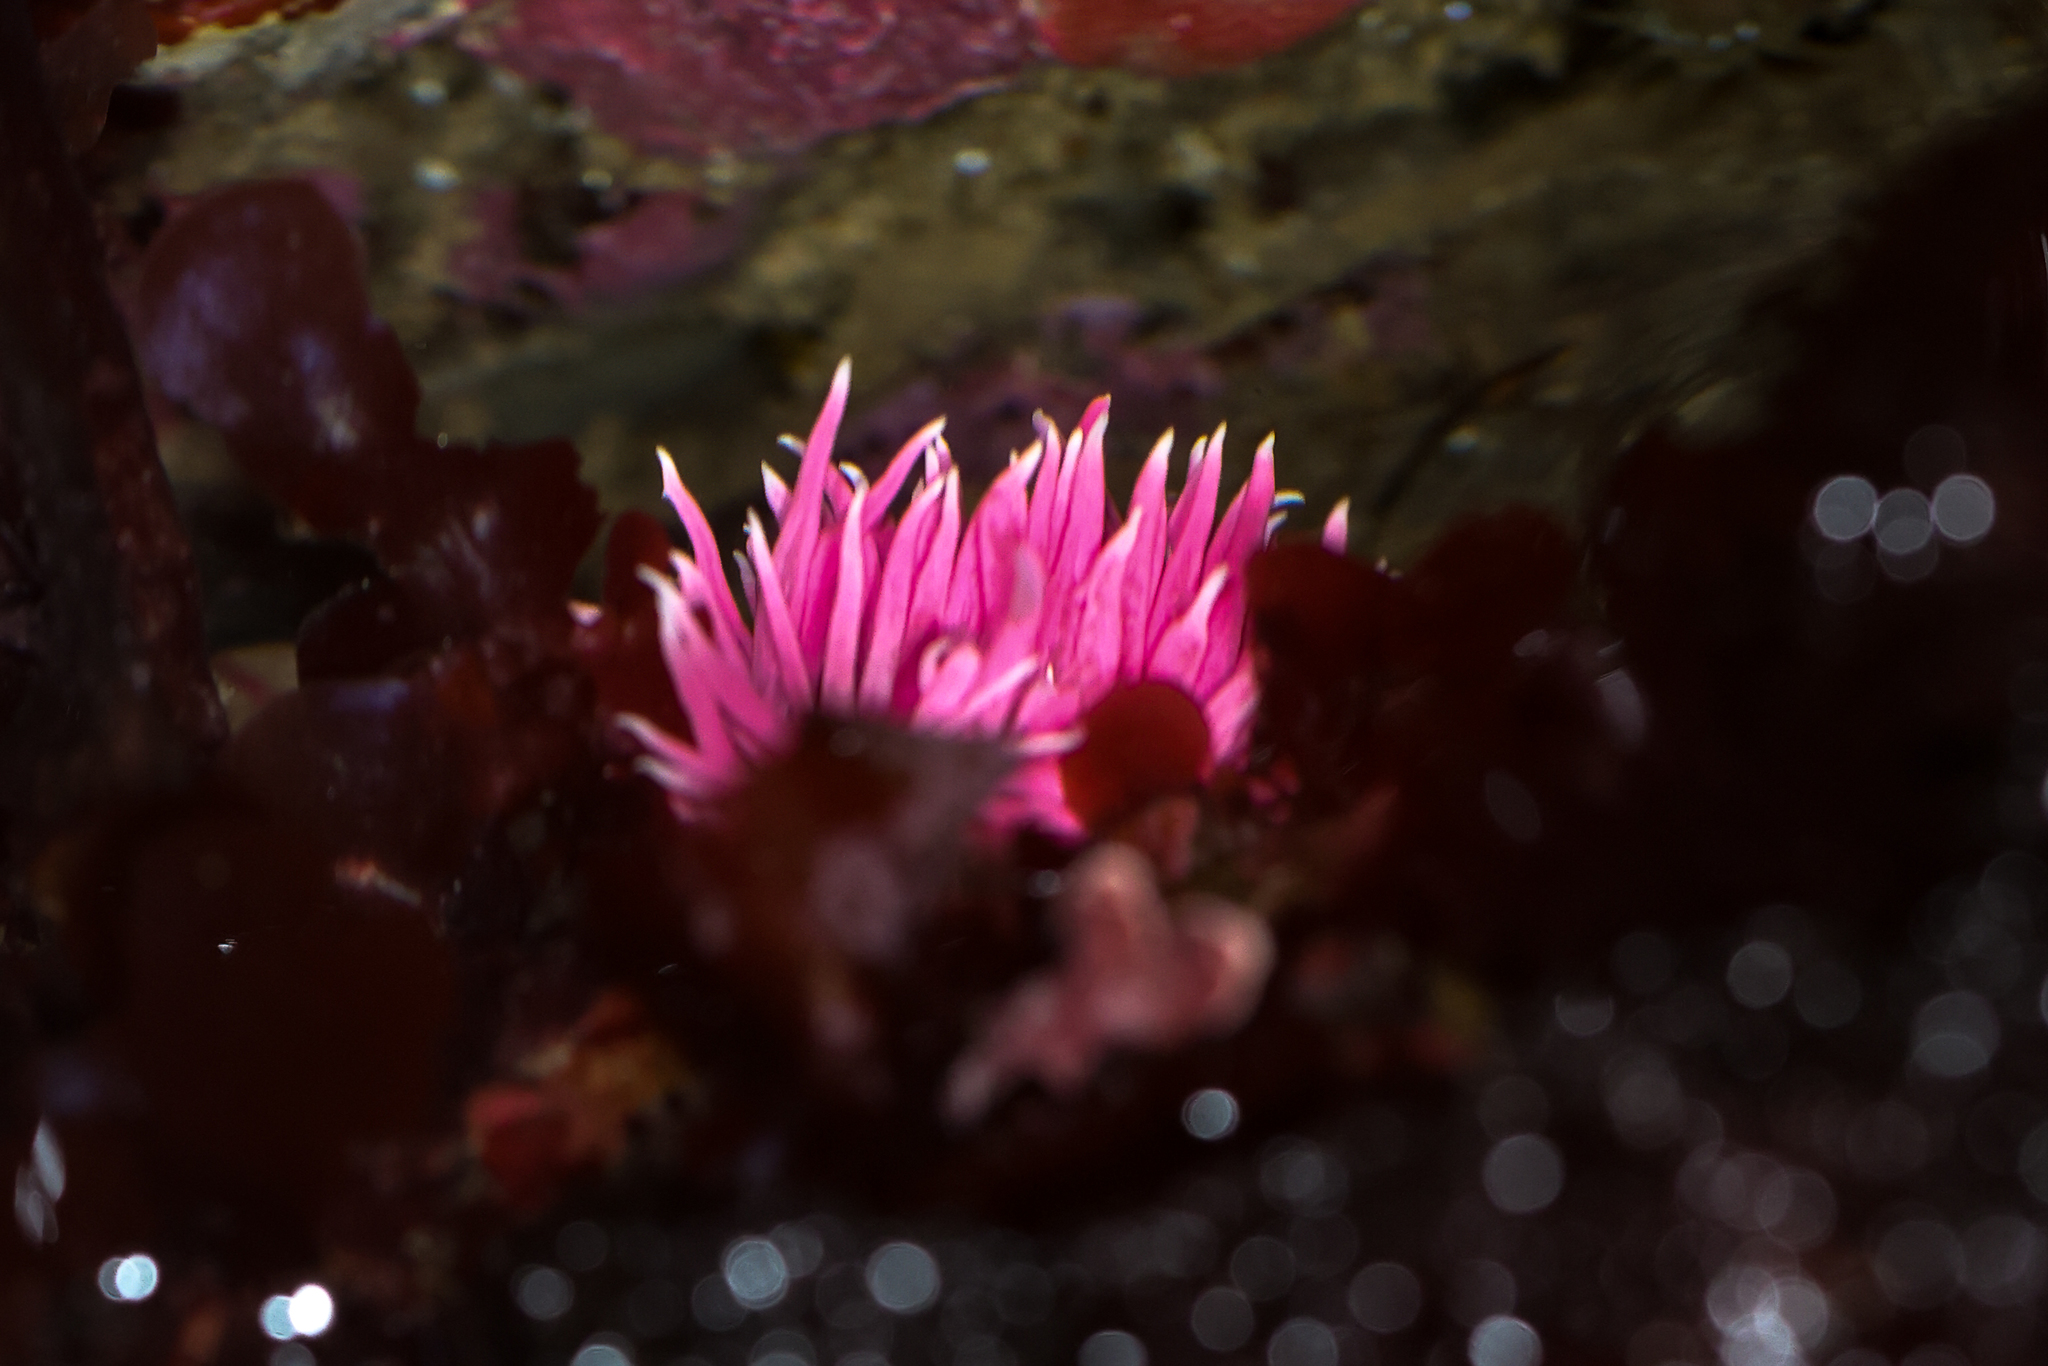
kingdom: Animalia
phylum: Mollusca
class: Gastropoda
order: Nudibranchia
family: Goniodorididae
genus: Okenia
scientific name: Okenia
